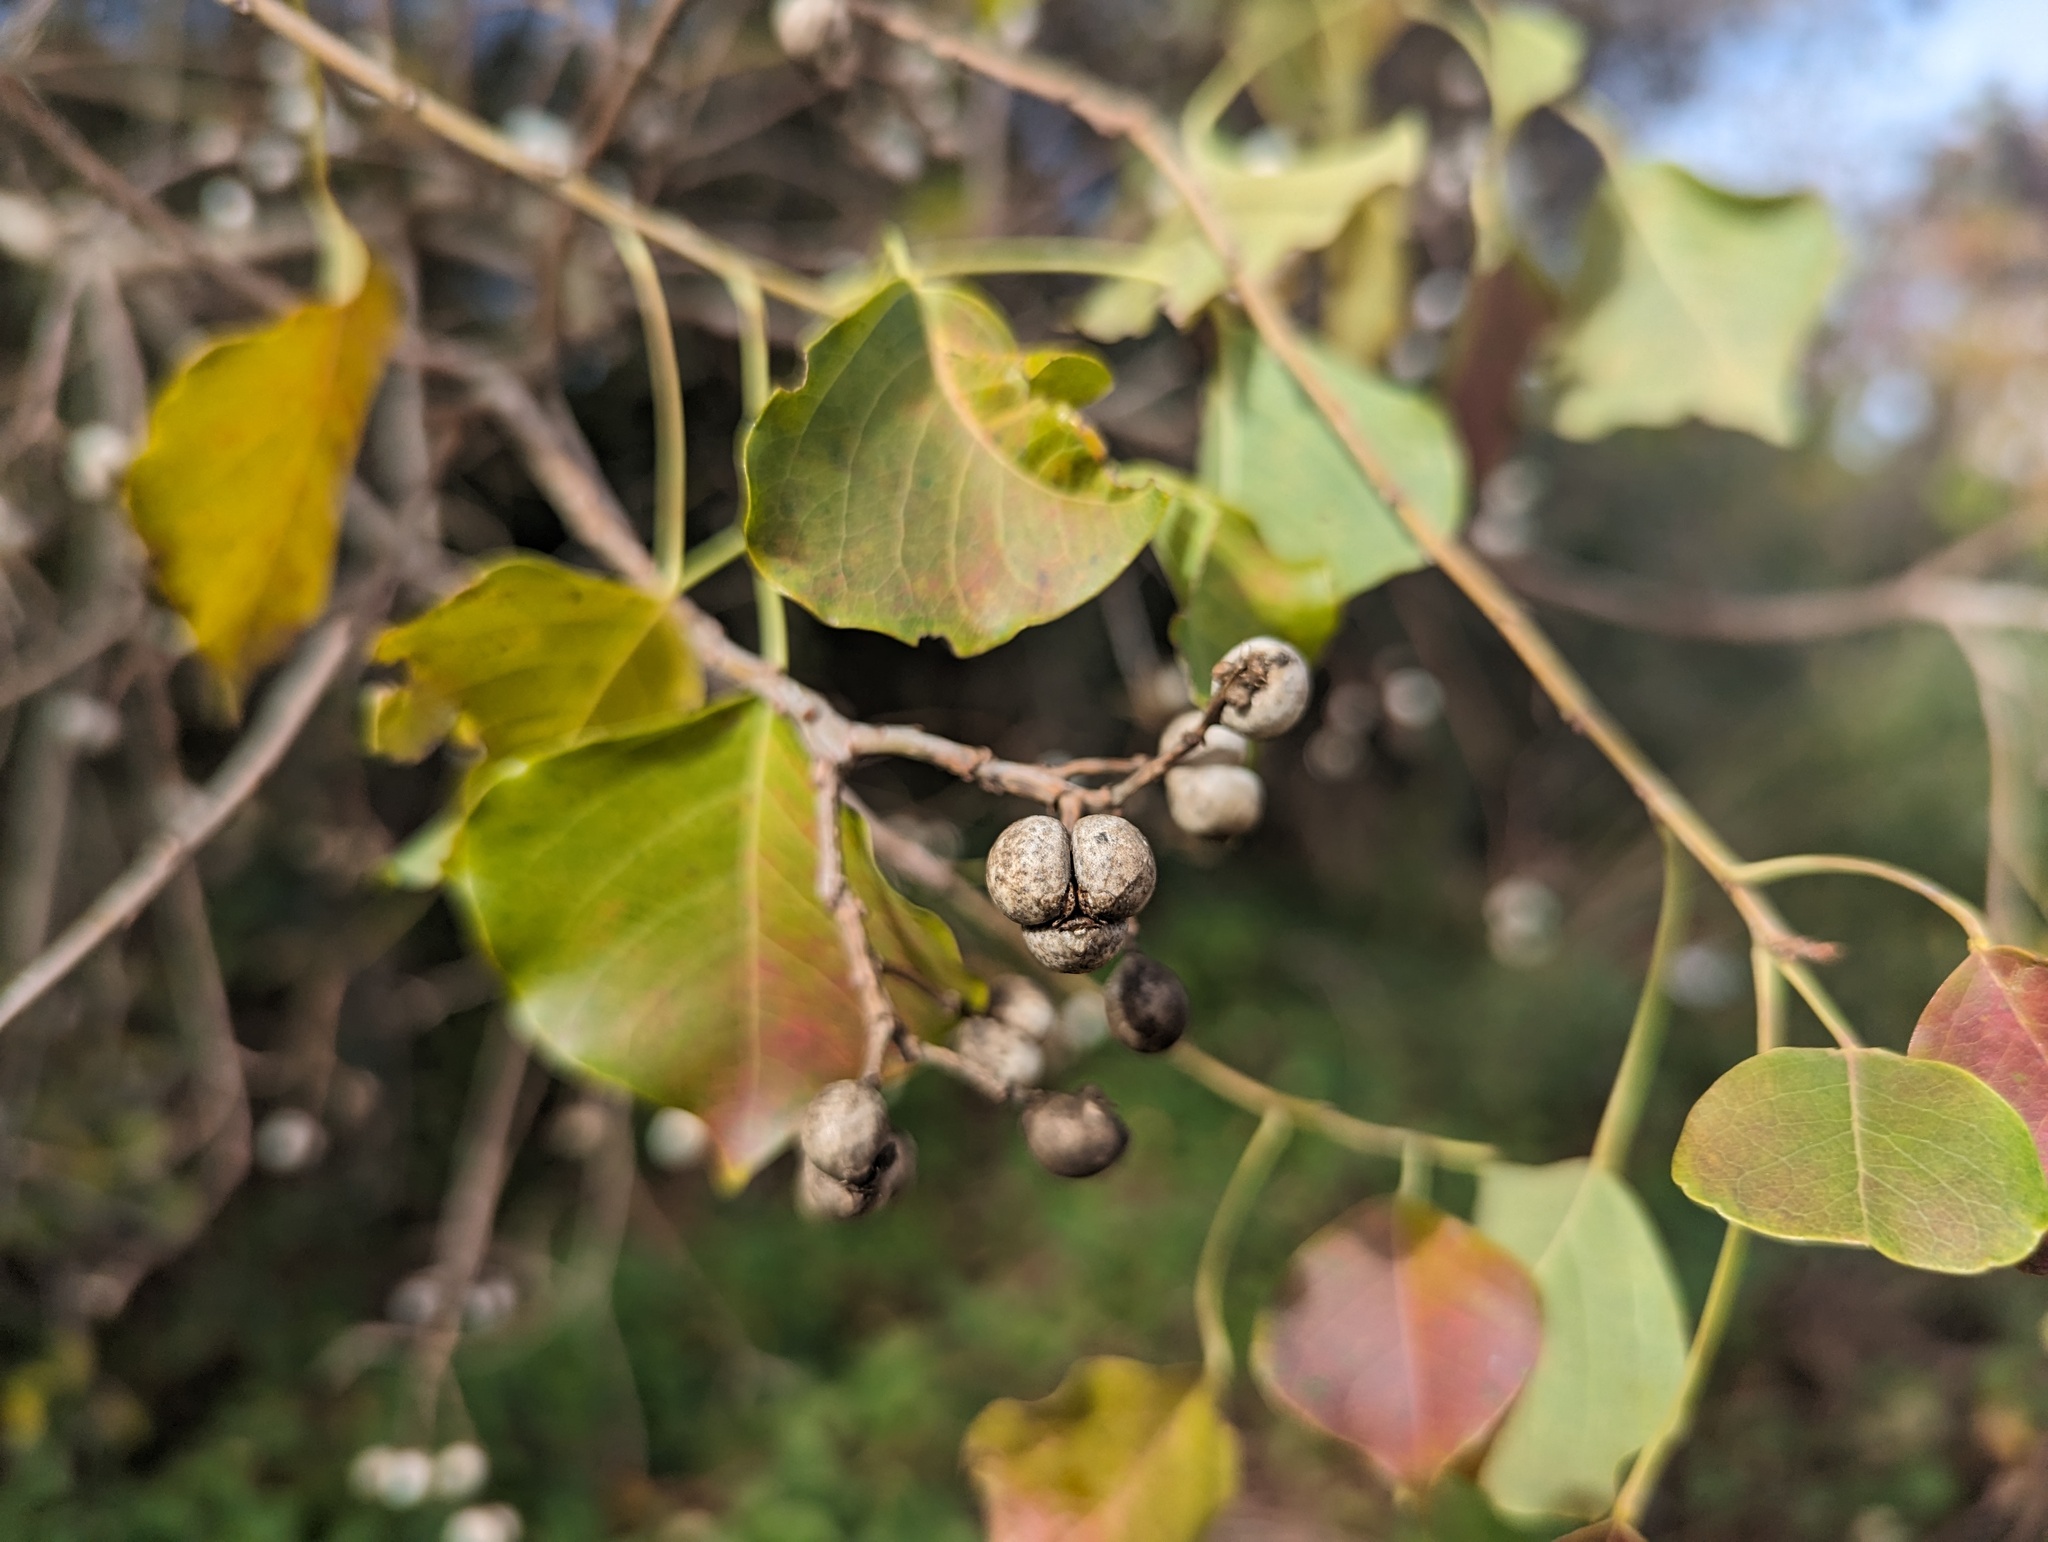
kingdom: Plantae
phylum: Tracheophyta
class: Magnoliopsida
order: Malpighiales
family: Euphorbiaceae
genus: Triadica
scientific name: Triadica sebifera
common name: Chinese tallow
